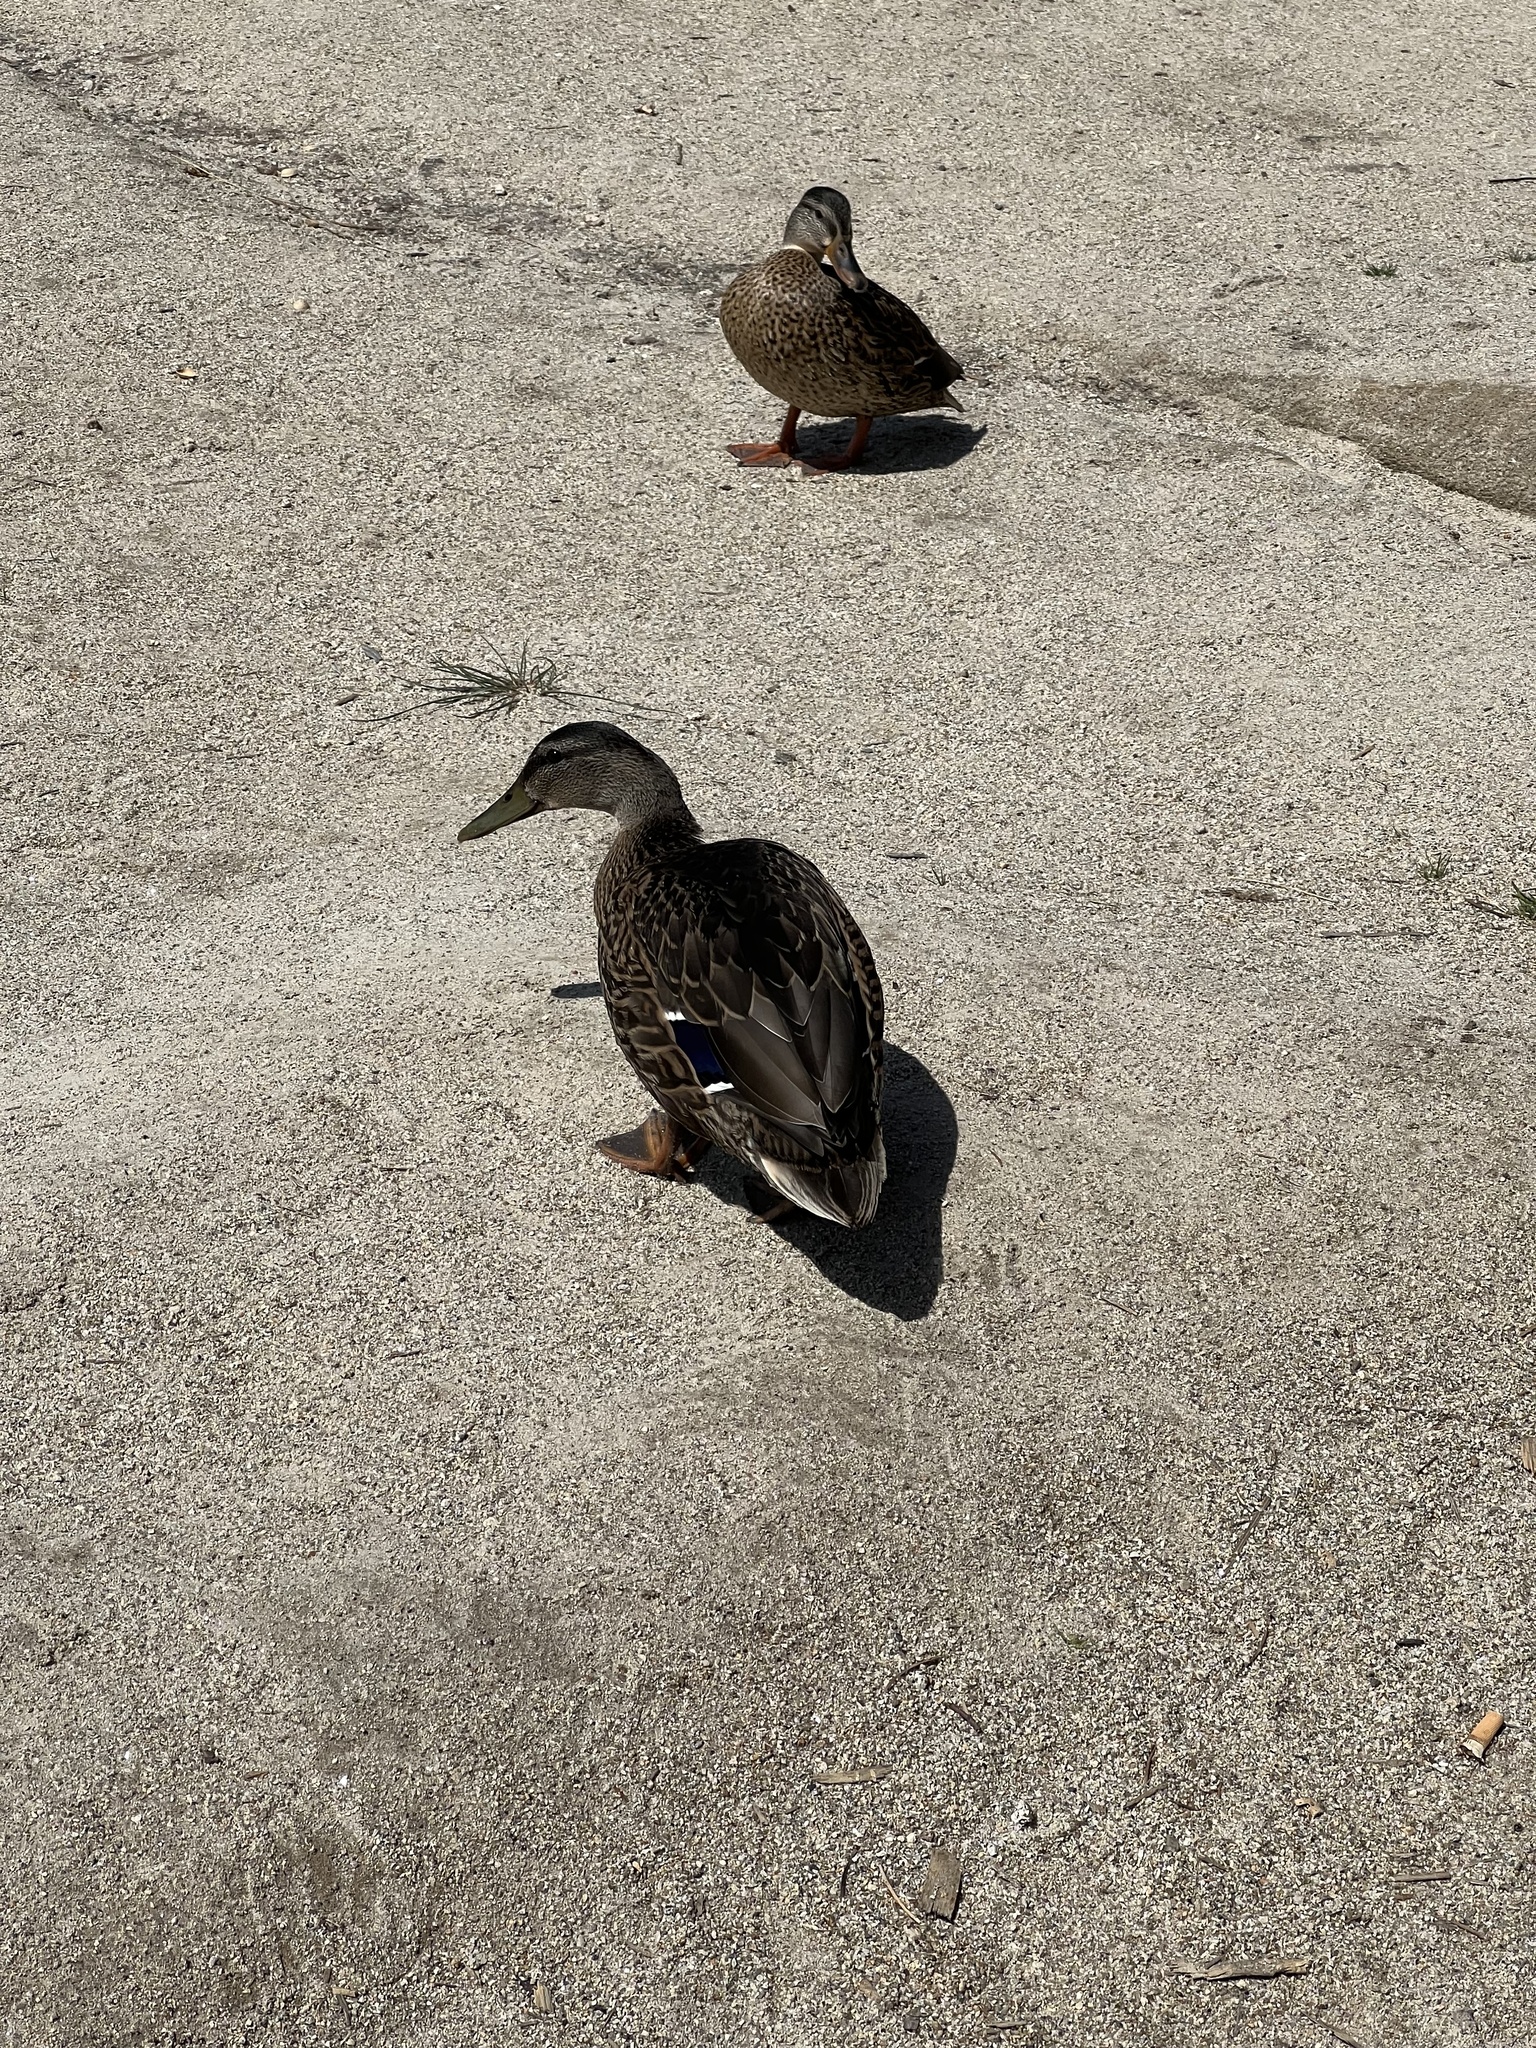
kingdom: Animalia
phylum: Chordata
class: Aves
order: Anseriformes
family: Anatidae
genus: Anas
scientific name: Anas platyrhynchos
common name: Mallard
